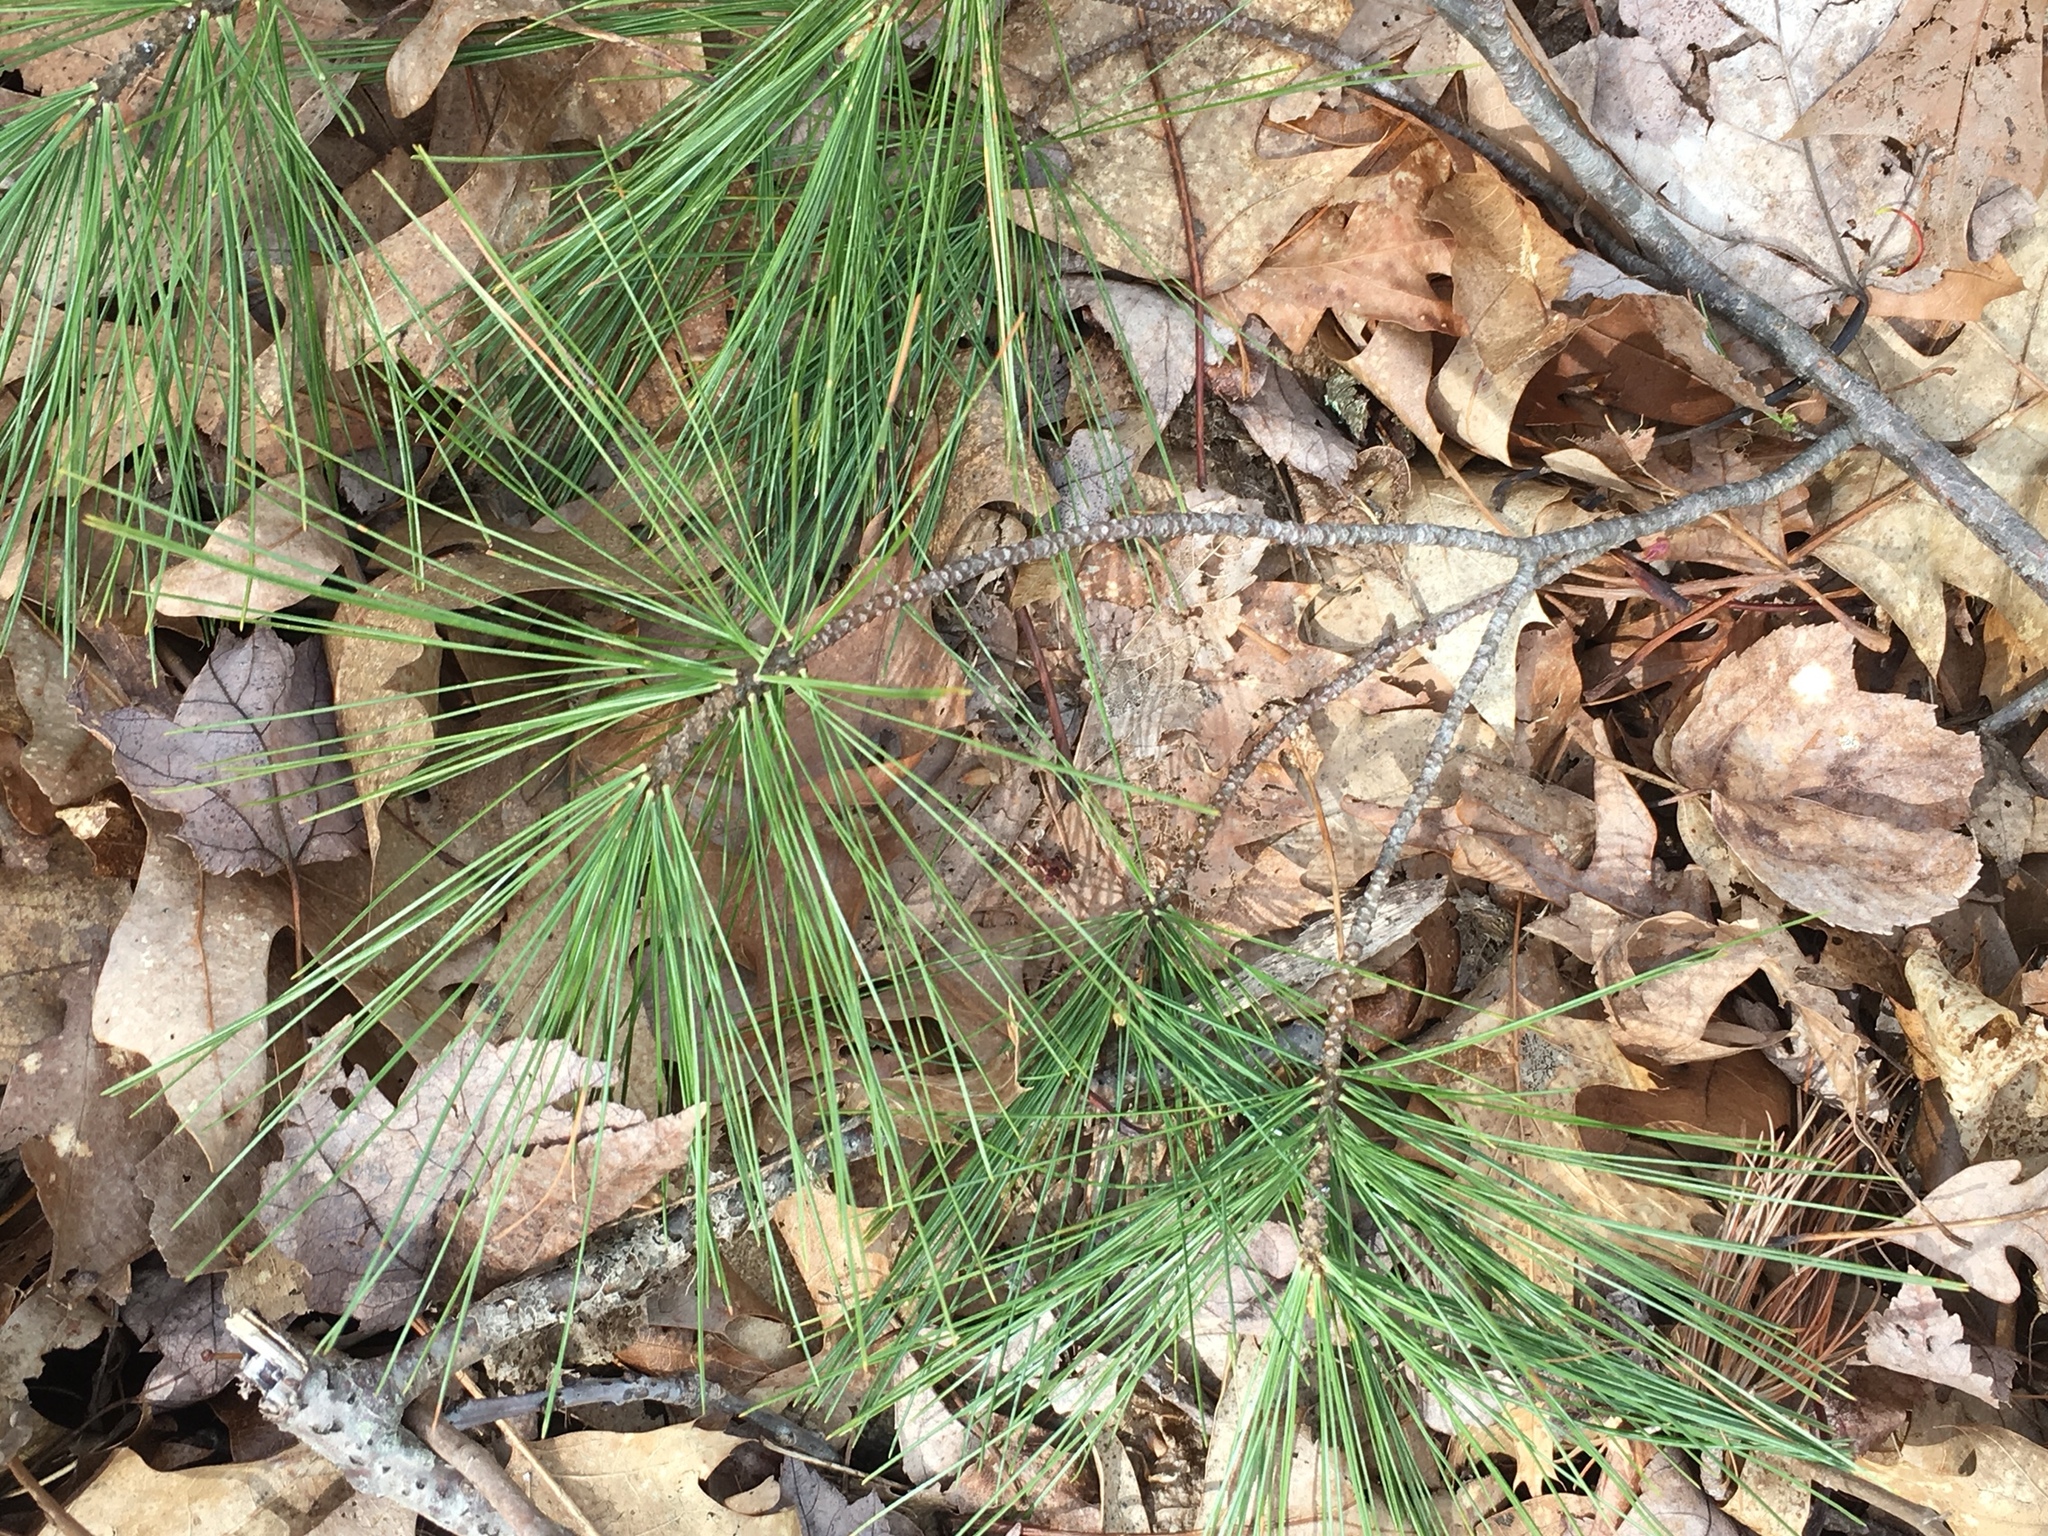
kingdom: Plantae
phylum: Tracheophyta
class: Pinopsida
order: Pinales
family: Pinaceae
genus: Pinus
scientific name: Pinus strobus
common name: Weymouth pine
